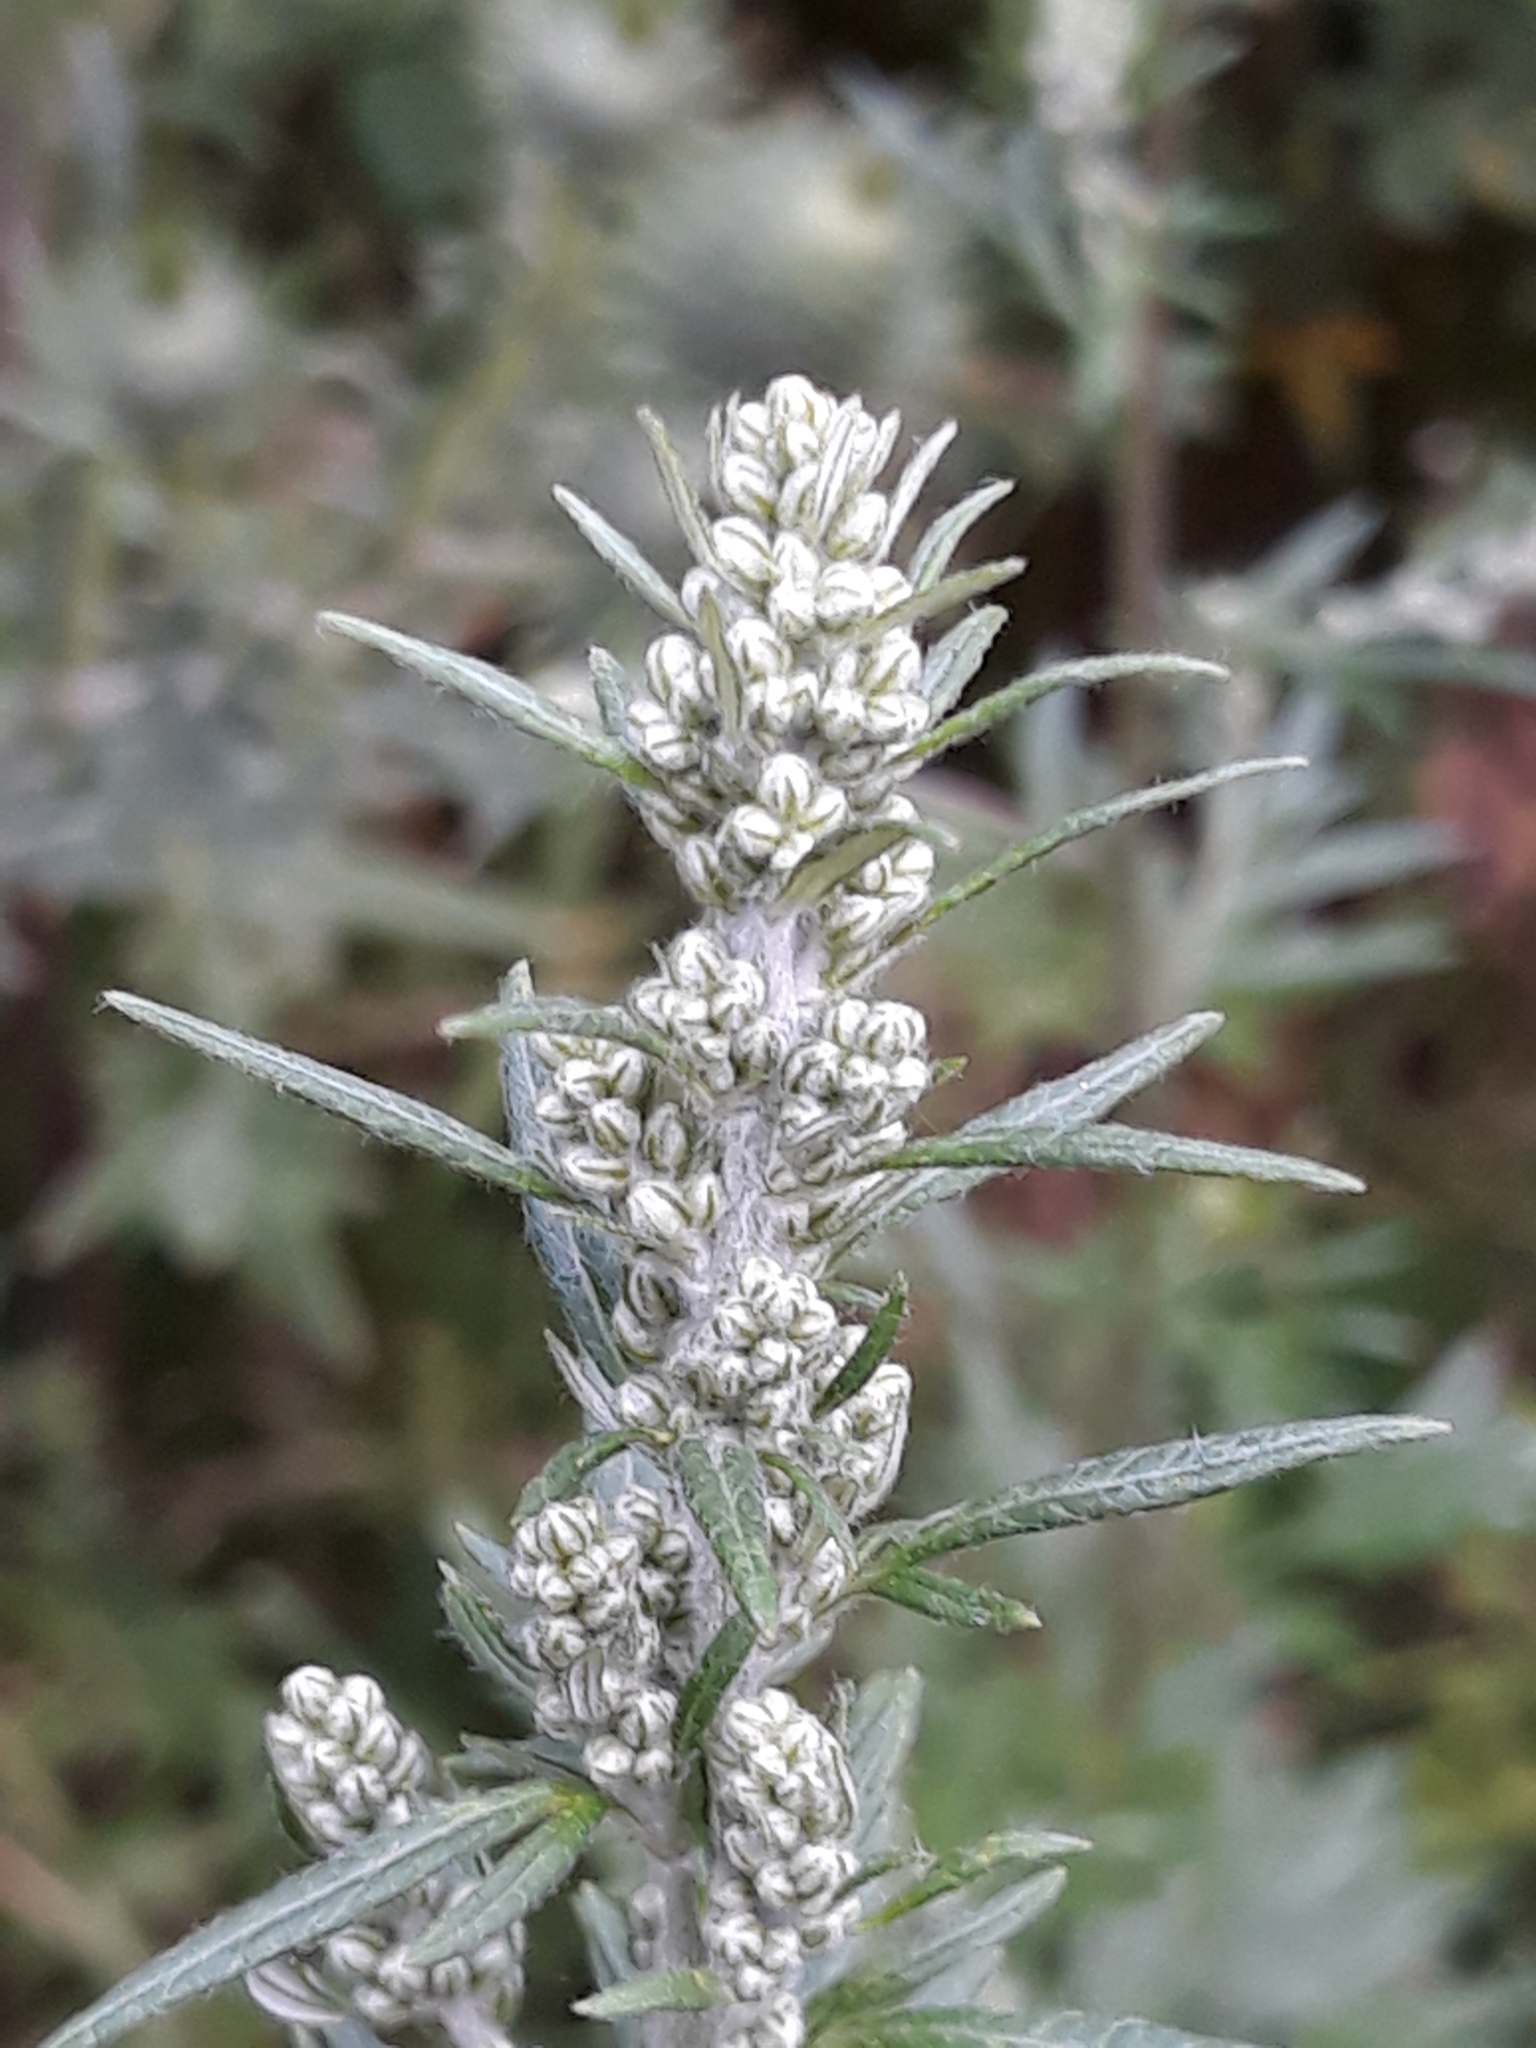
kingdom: Plantae
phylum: Tracheophyta
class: Magnoliopsida
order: Asterales
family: Asteraceae
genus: Artemisia
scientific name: Artemisia vulgaris
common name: Mugwort
